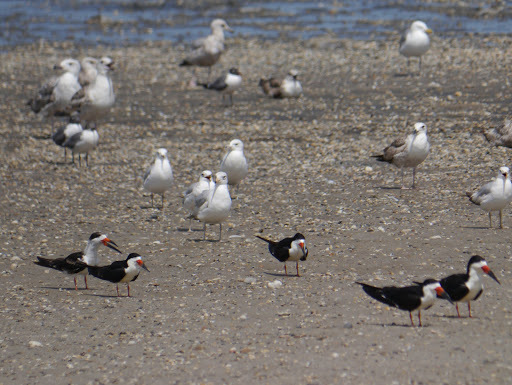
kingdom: Animalia
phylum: Chordata
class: Aves
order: Charadriiformes
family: Laridae
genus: Rynchops
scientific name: Rynchops niger
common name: Black skimmer
